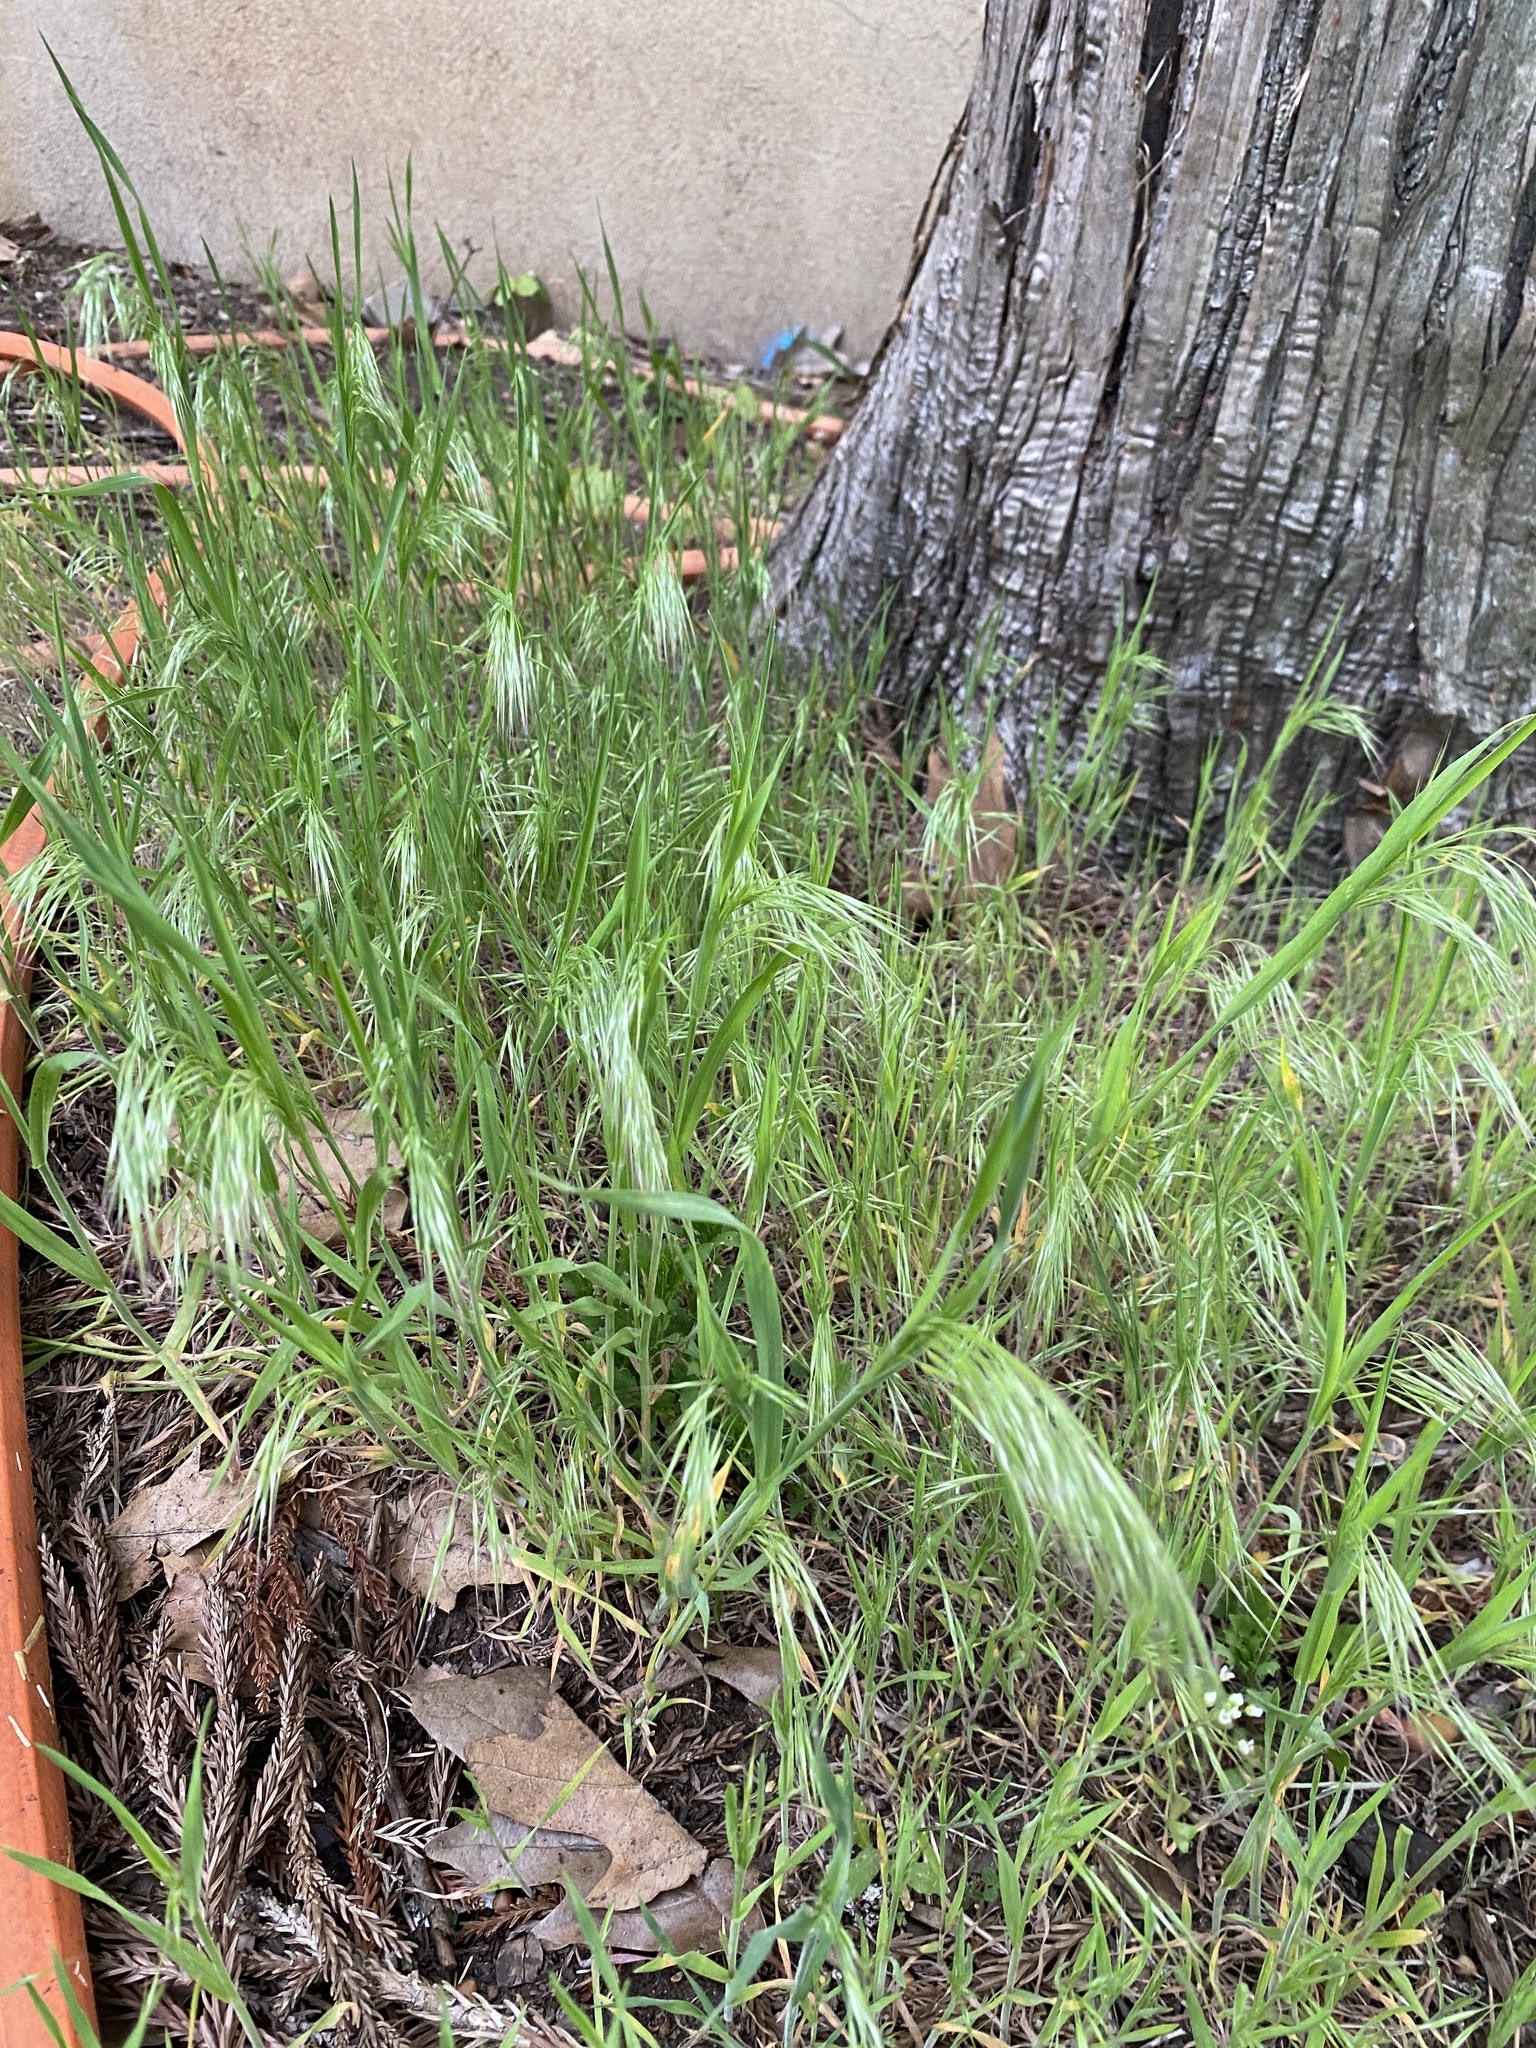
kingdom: Plantae
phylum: Tracheophyta
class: Liliopsida
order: Poales
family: Poaceae
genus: Bromus
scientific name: Bromus tectorum
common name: Cheatgrass
